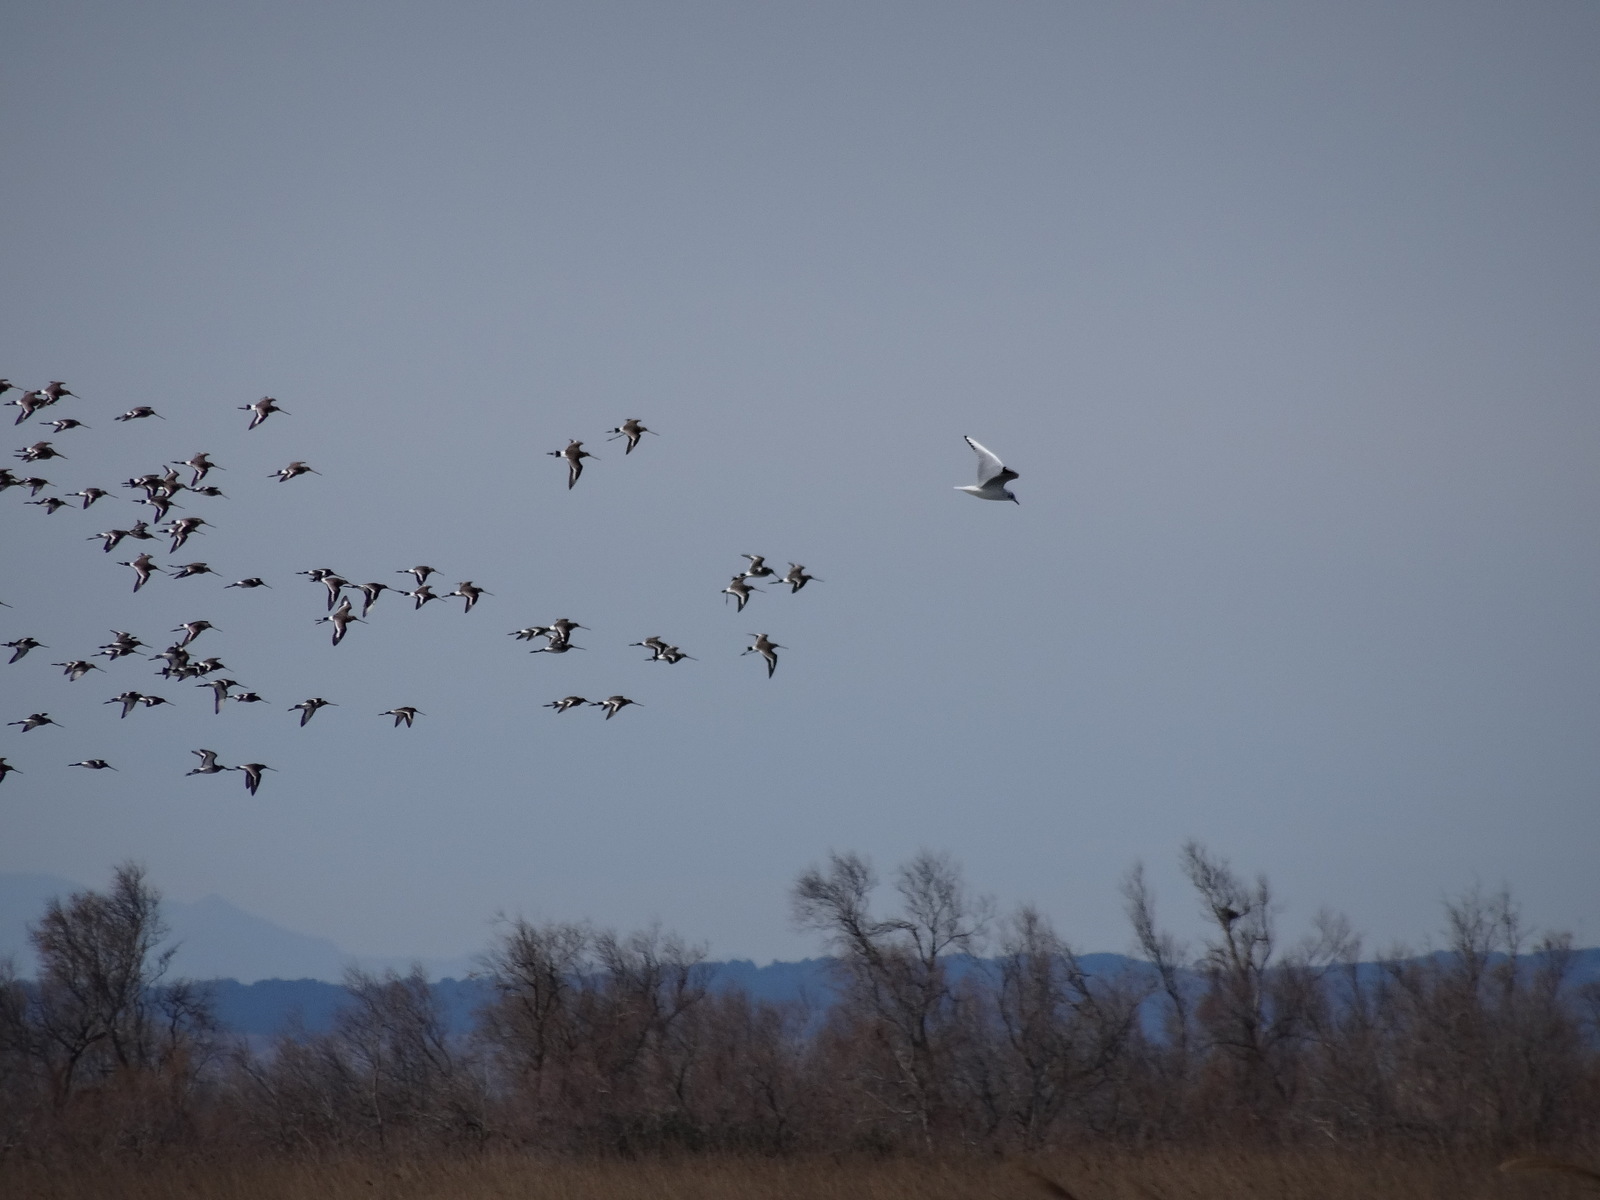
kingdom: Animalia
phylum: Chordata
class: Aves
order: Charadriiformes
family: Scolopacidae
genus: Limosa
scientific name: Limosa limosa
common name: Black-tailed godwit
